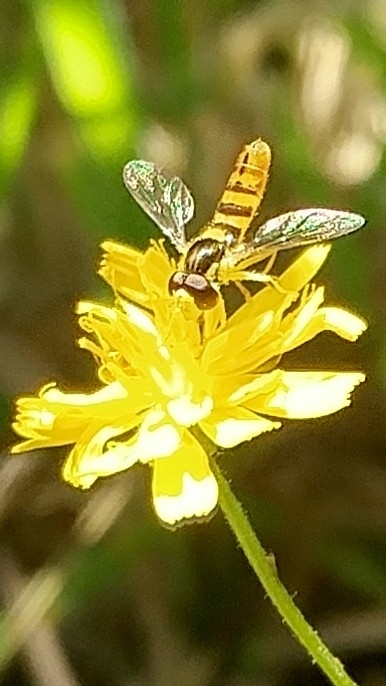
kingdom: Animalia
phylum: Arthropoda
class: Insecta
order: Diptera
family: Syrphidae
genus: Sphaerophoria
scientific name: Sphaerophoria sulphuripes
